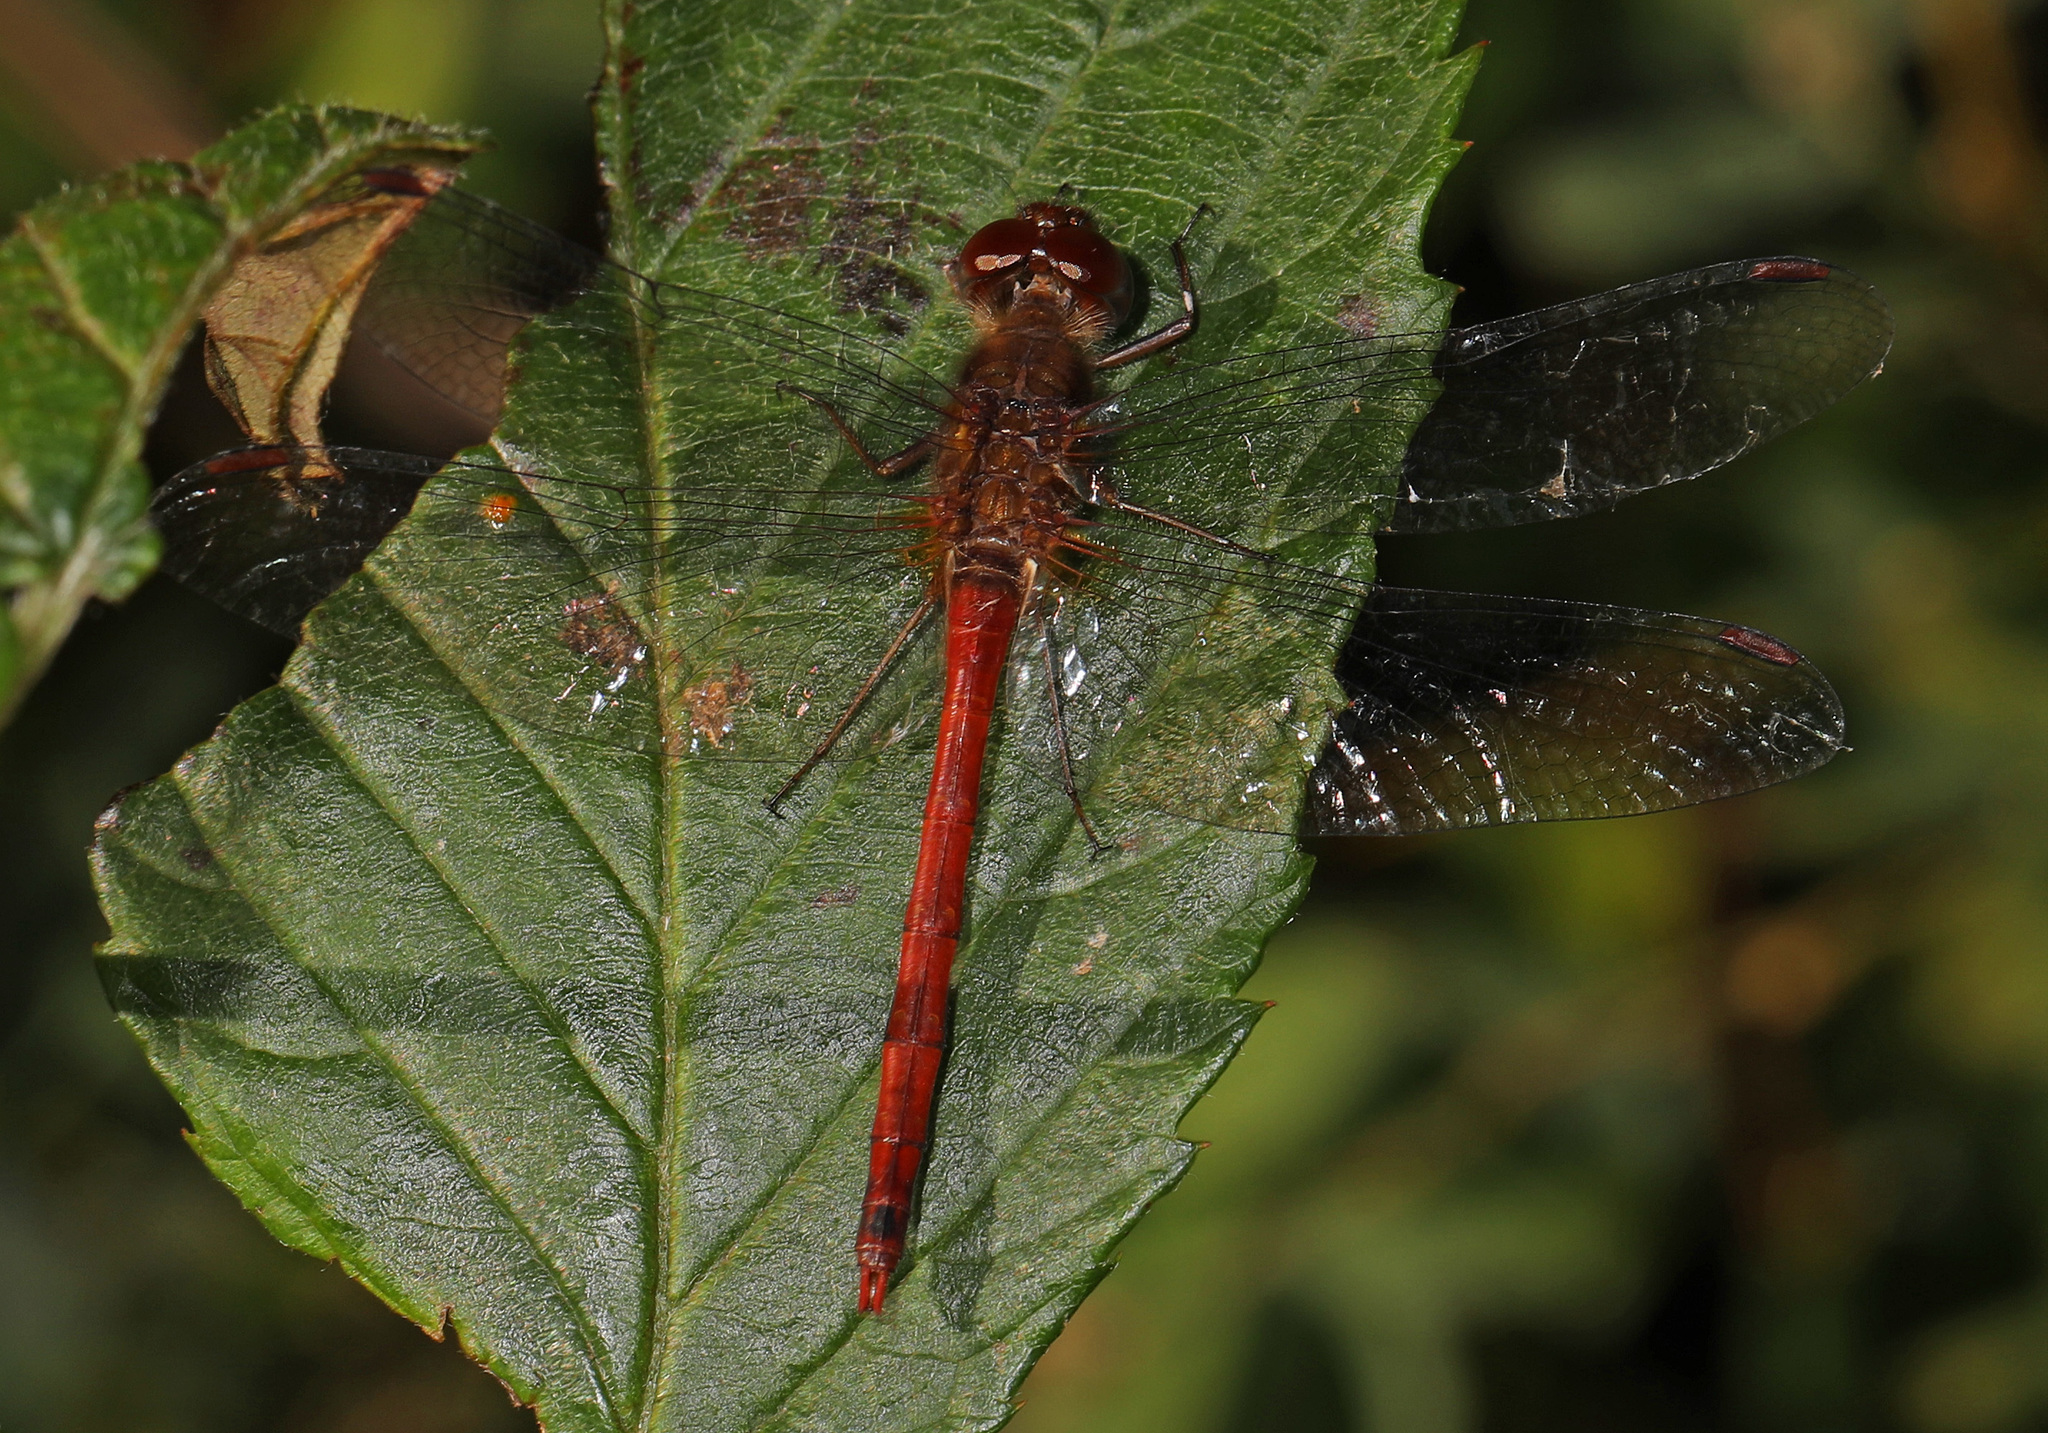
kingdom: Animalia
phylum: Arthropoda
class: Insecta
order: Odonata
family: Libellulidae
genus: Sympetrum
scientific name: Sympetrum vicinum
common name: Autumn meadowhawk
